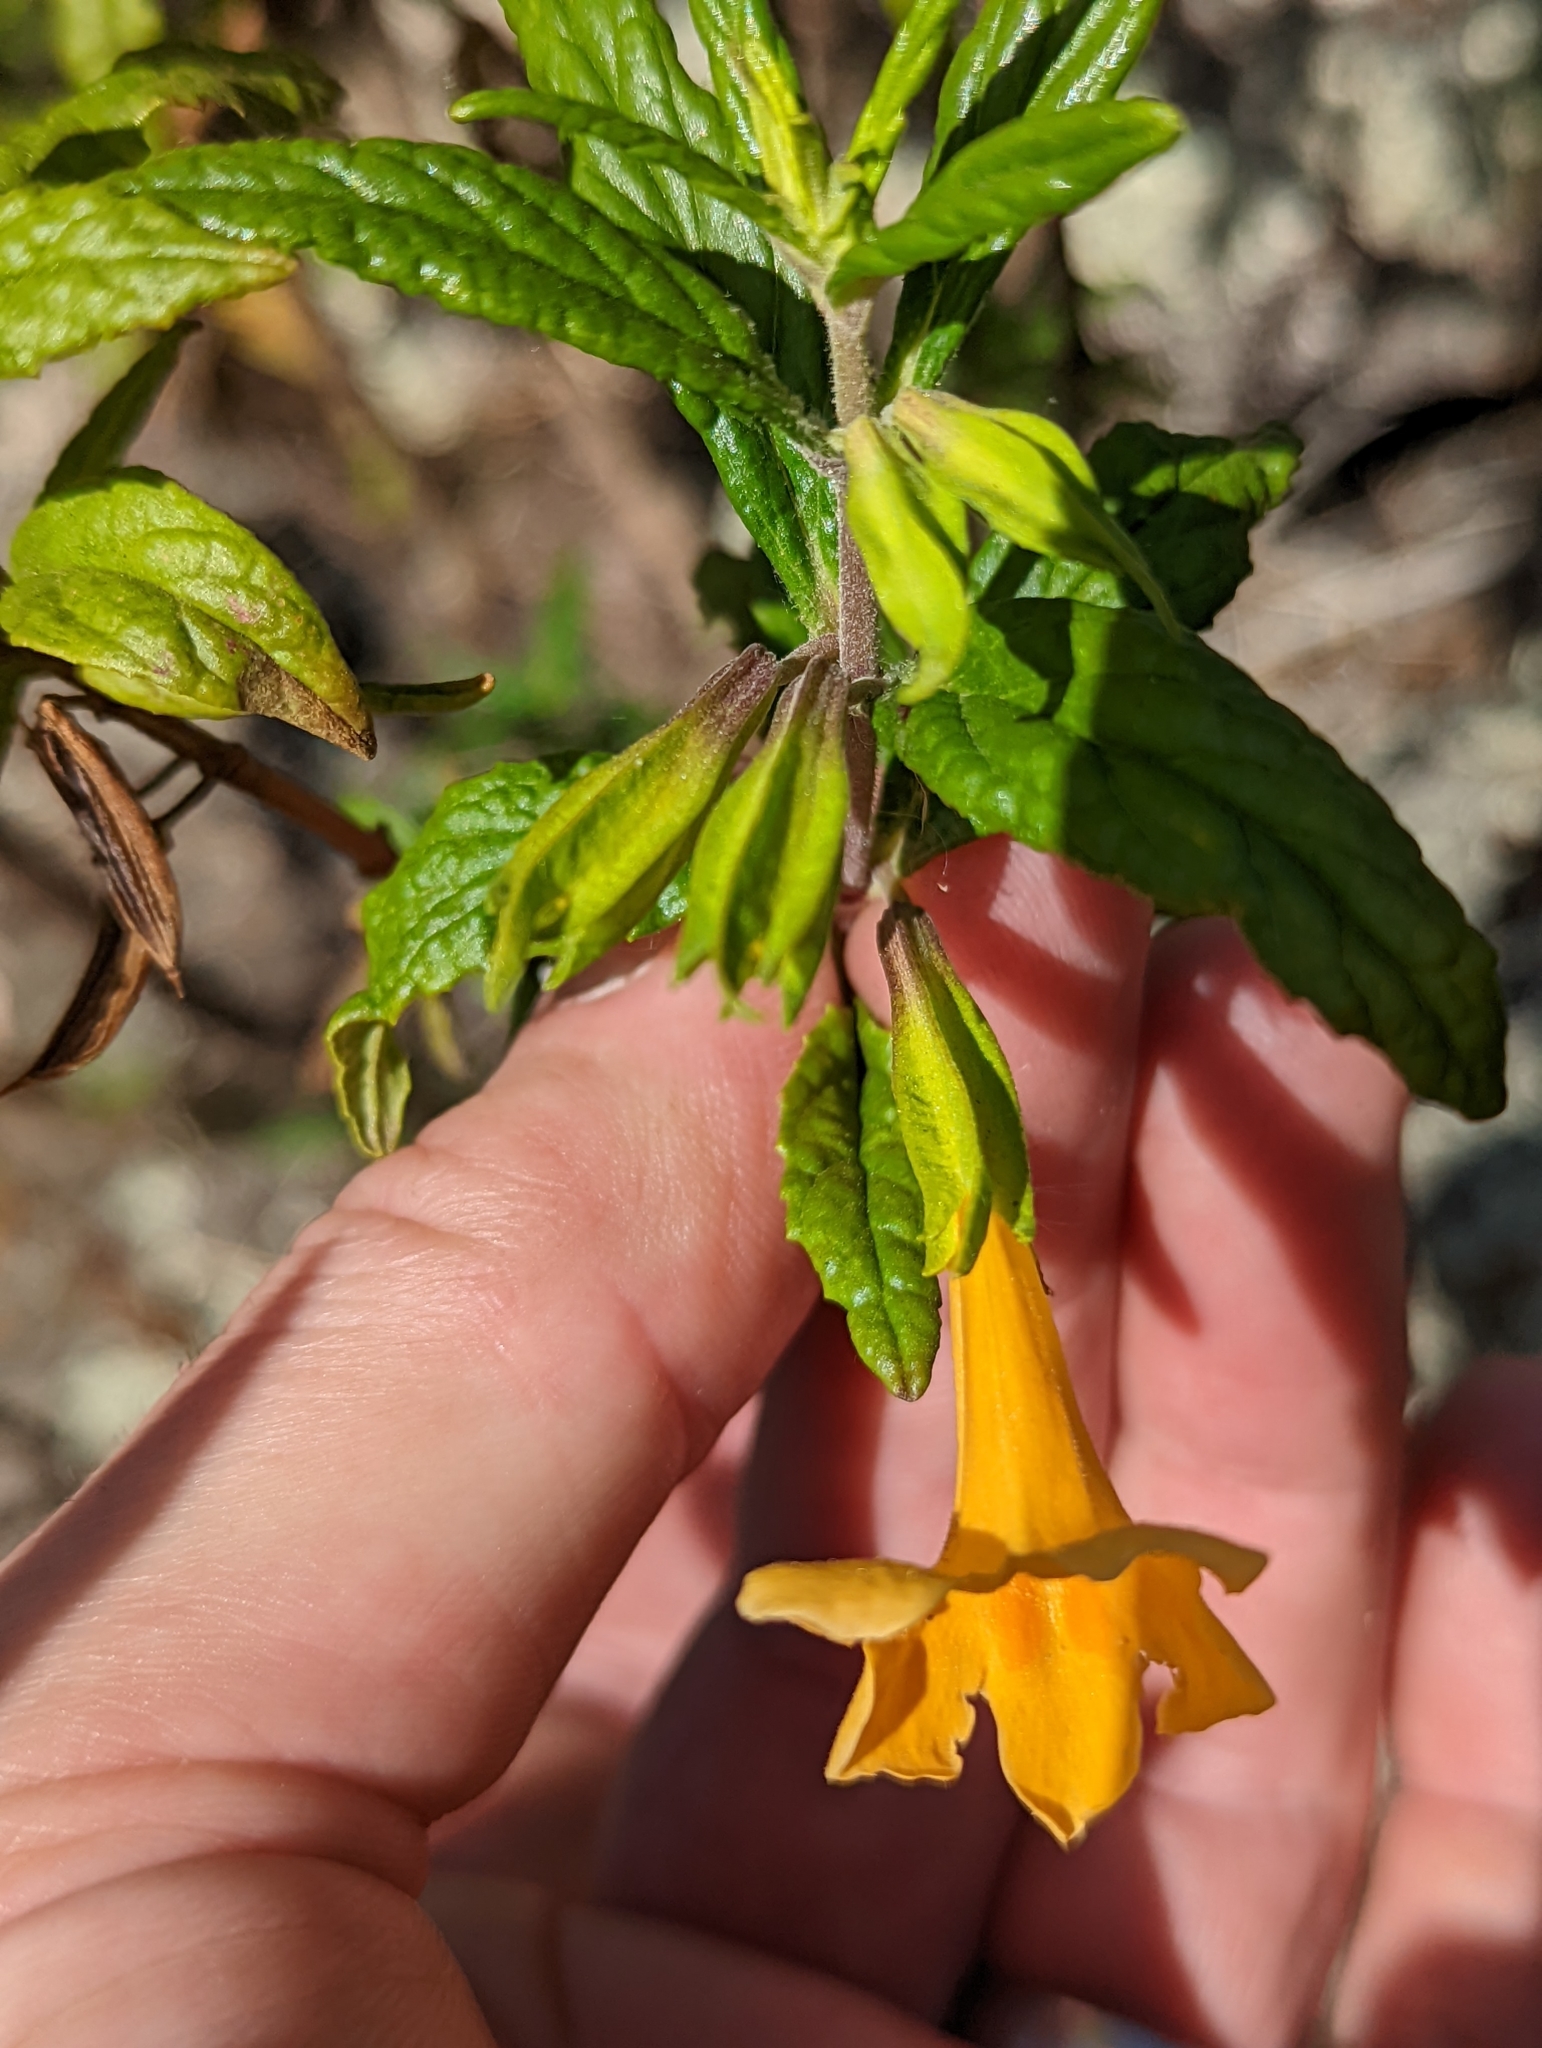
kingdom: Plantae
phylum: Tracheophyta
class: Magnoliopsida
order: Lamiales
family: Phrymaceae
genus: Diplacus
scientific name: Diplacus aurantiacus
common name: Bush monkey-flower
